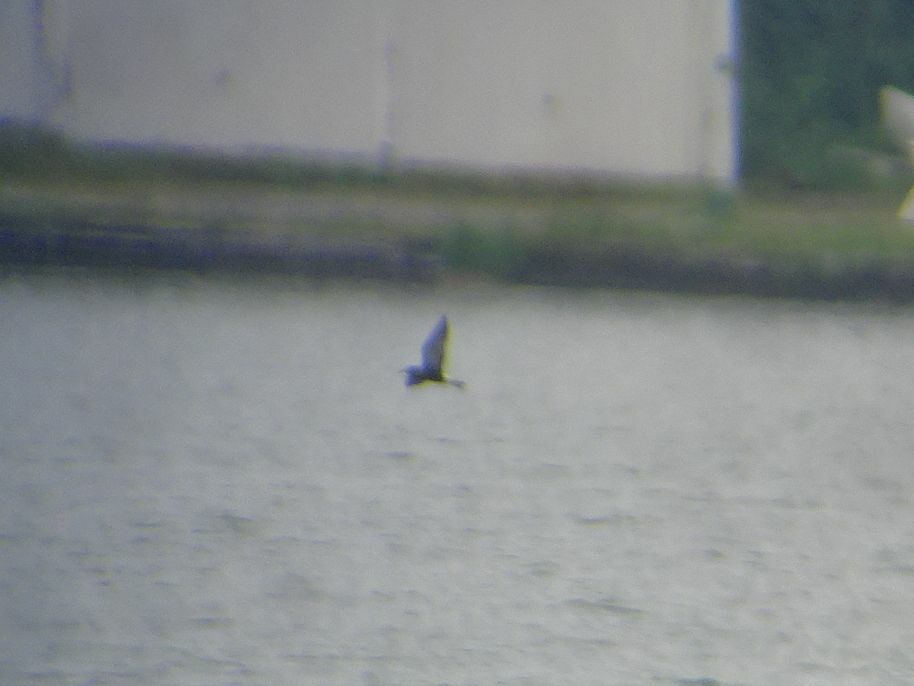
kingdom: Animalia
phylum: Chordata
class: Aves
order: Charadriiformes
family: Laridae
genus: Chlidonias
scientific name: Chlidonias niger
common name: Black tern
